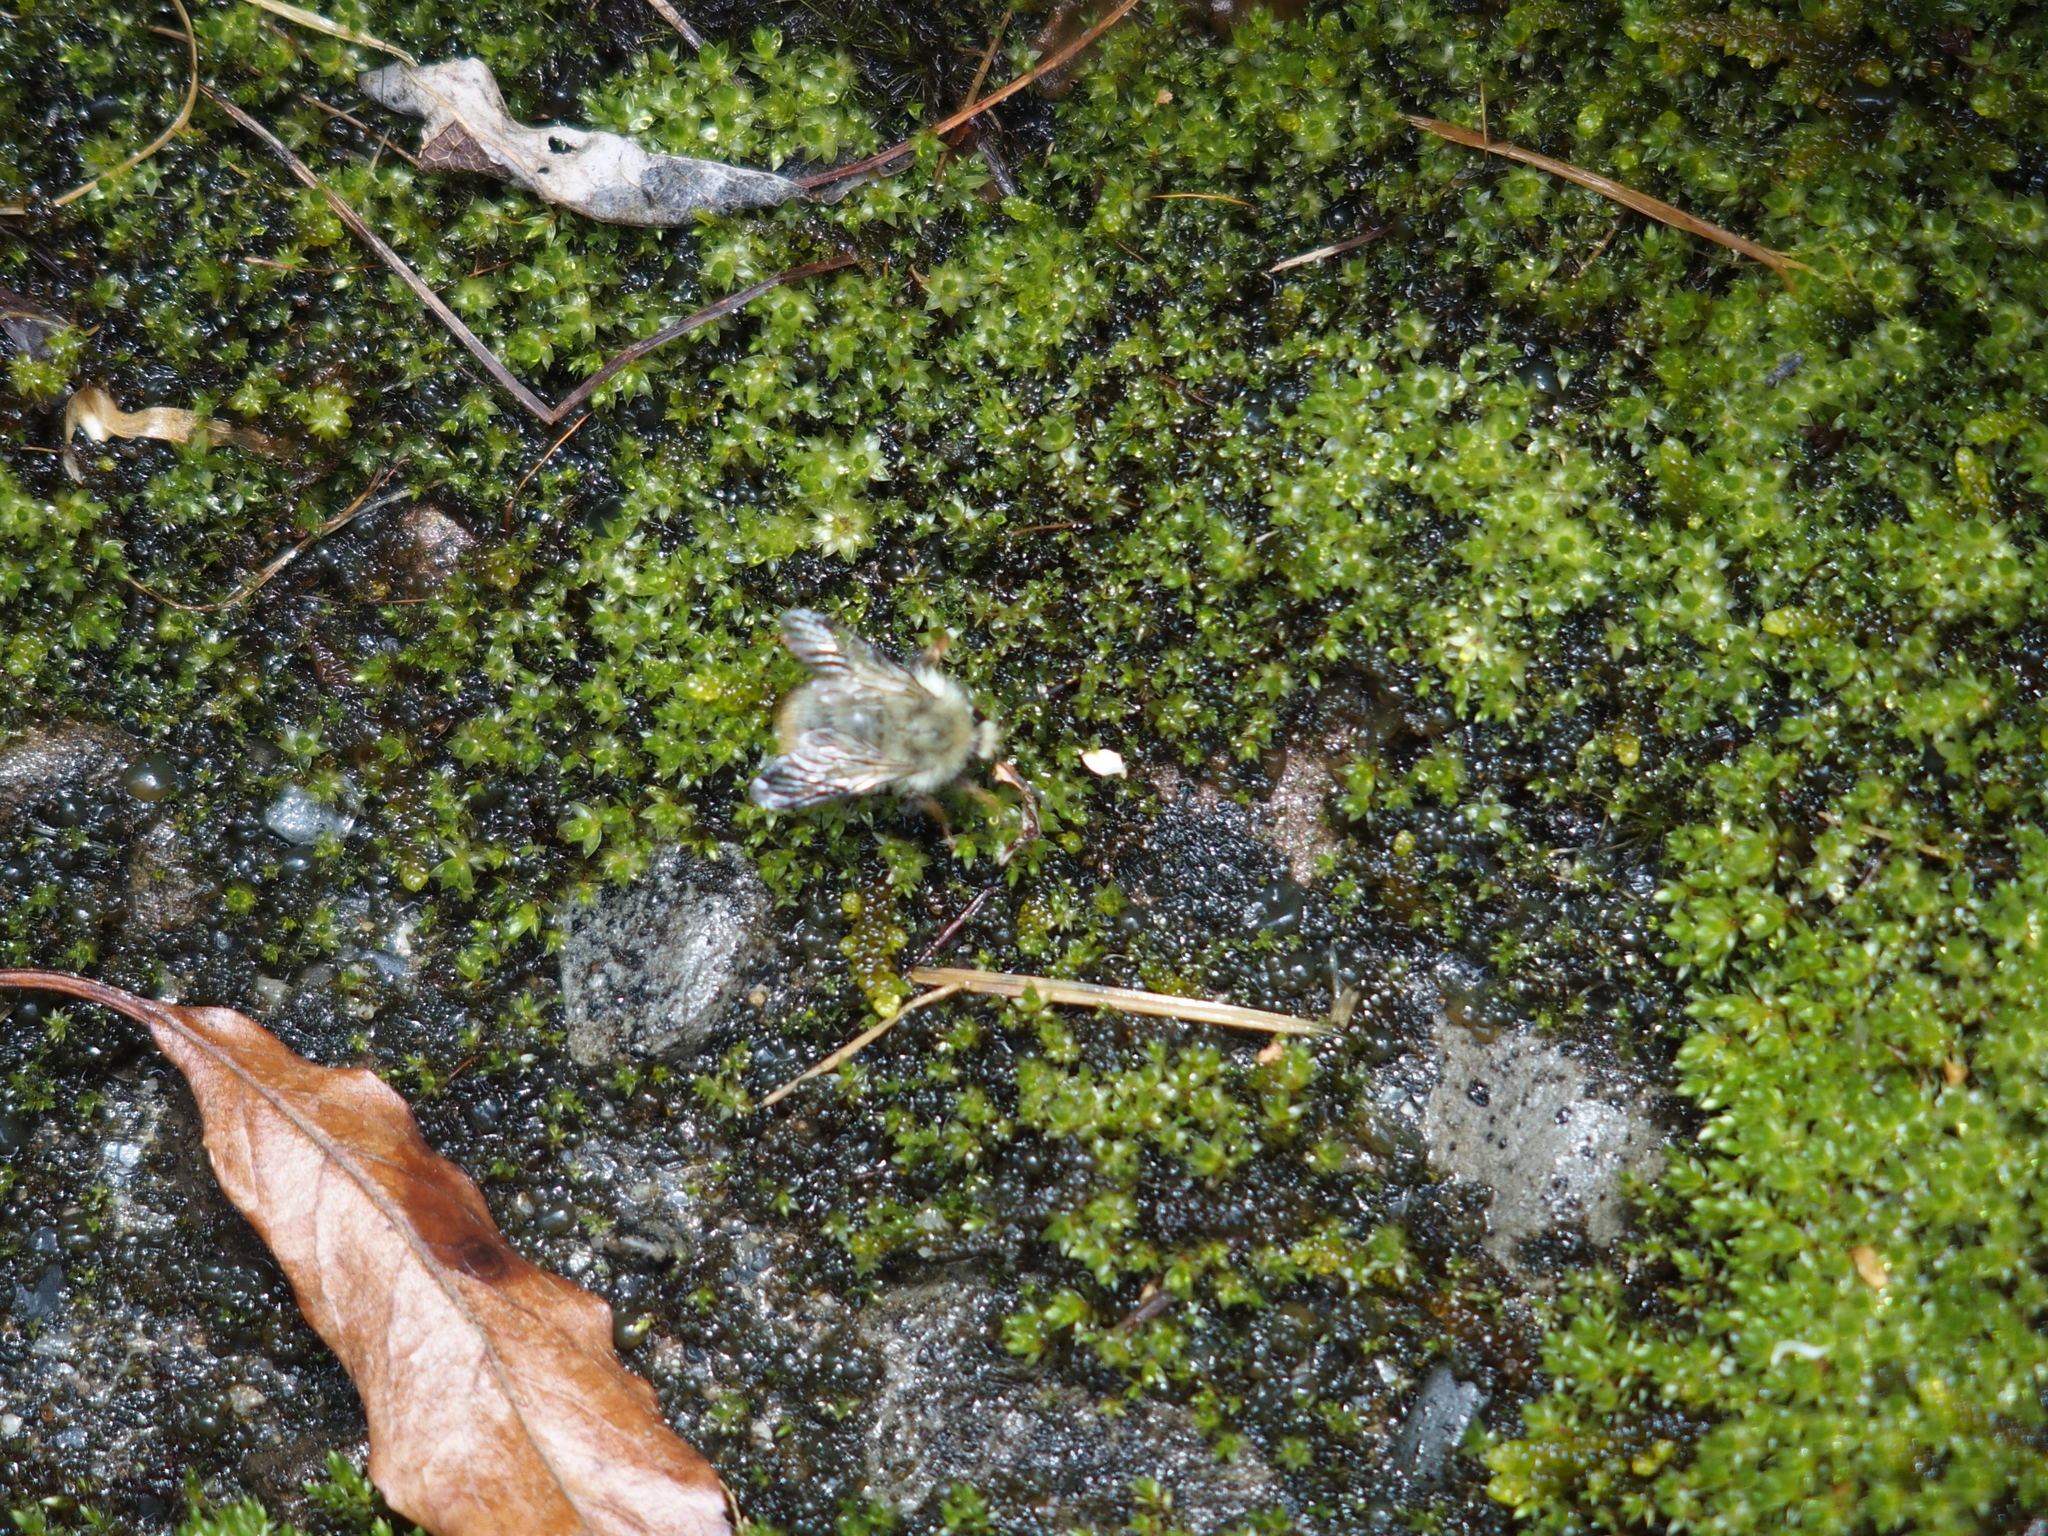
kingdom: Animalia
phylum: Arthropoda
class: Insecta
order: Hymenoptera
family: Apidae
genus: Bombus
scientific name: Bombus sonani
